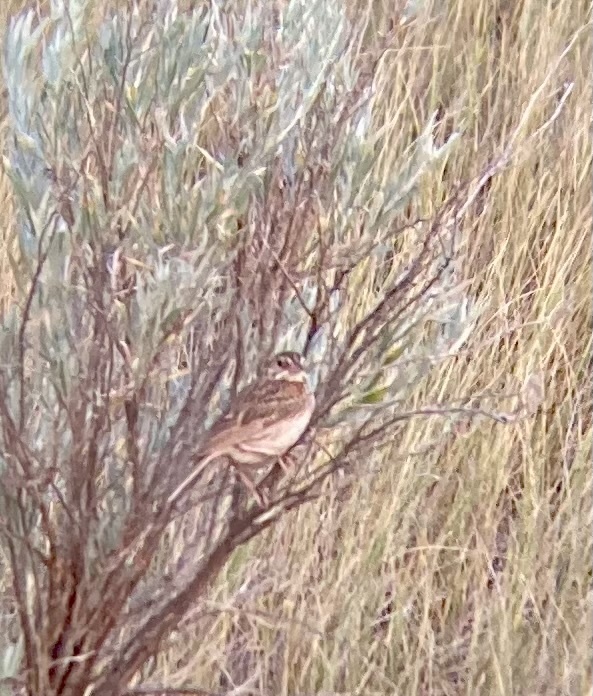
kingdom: Animalia
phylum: Chordata
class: Aves
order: Passeriformes
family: Passerellidae
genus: Pooecetes
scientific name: Pooecetes gramineus
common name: Vesper sparrow
